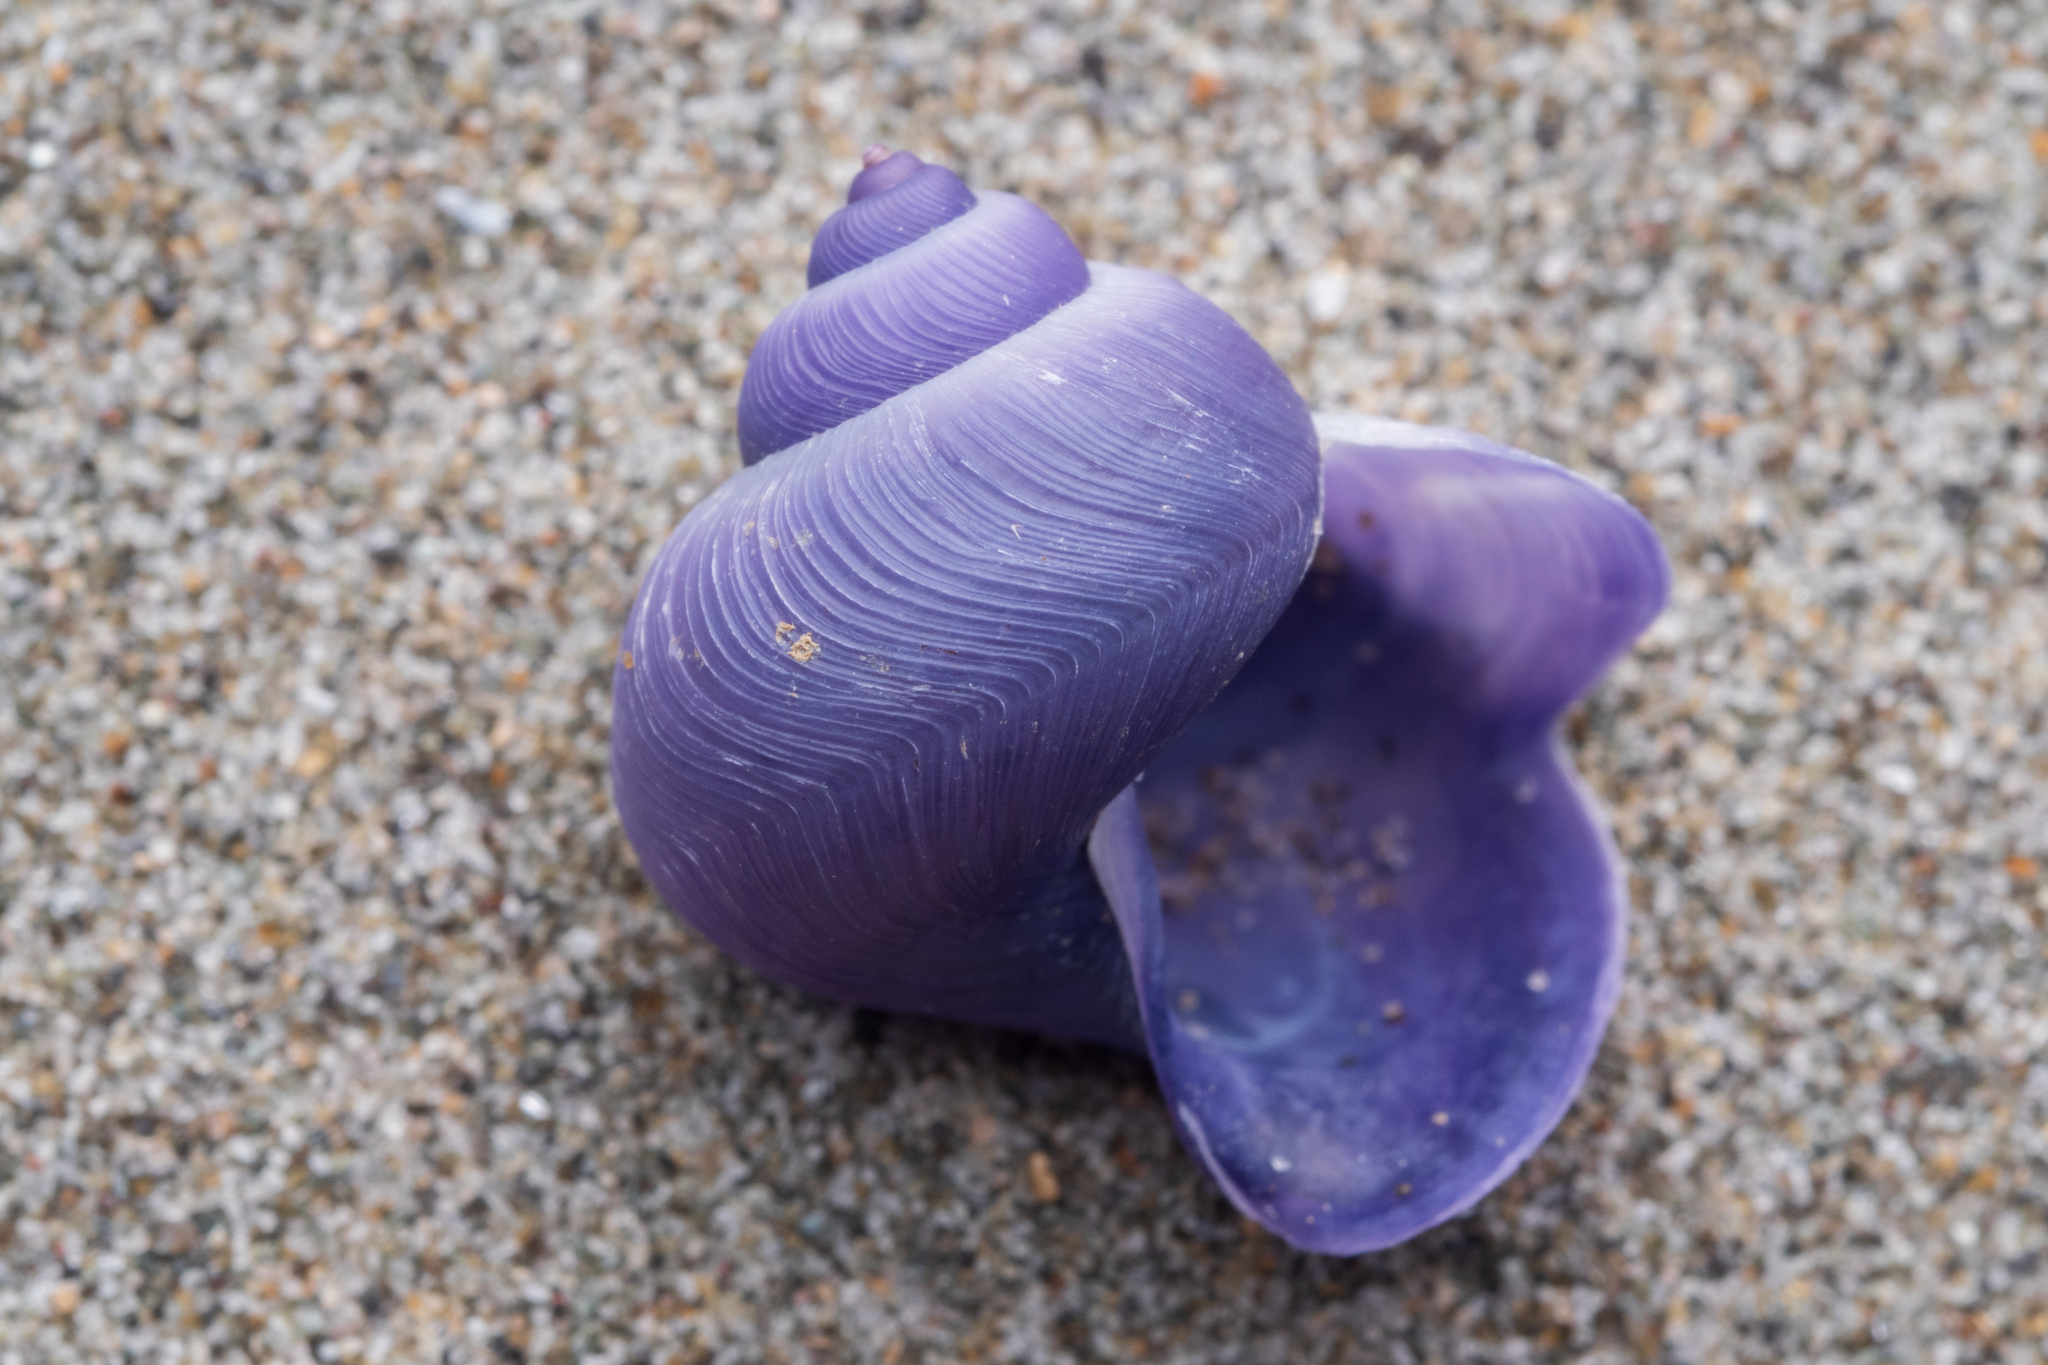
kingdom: Animalia
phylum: Mollusca
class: Gastropoda
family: Epitoniidae
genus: Janthina
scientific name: Janthina exigua
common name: Dwarf janthina
